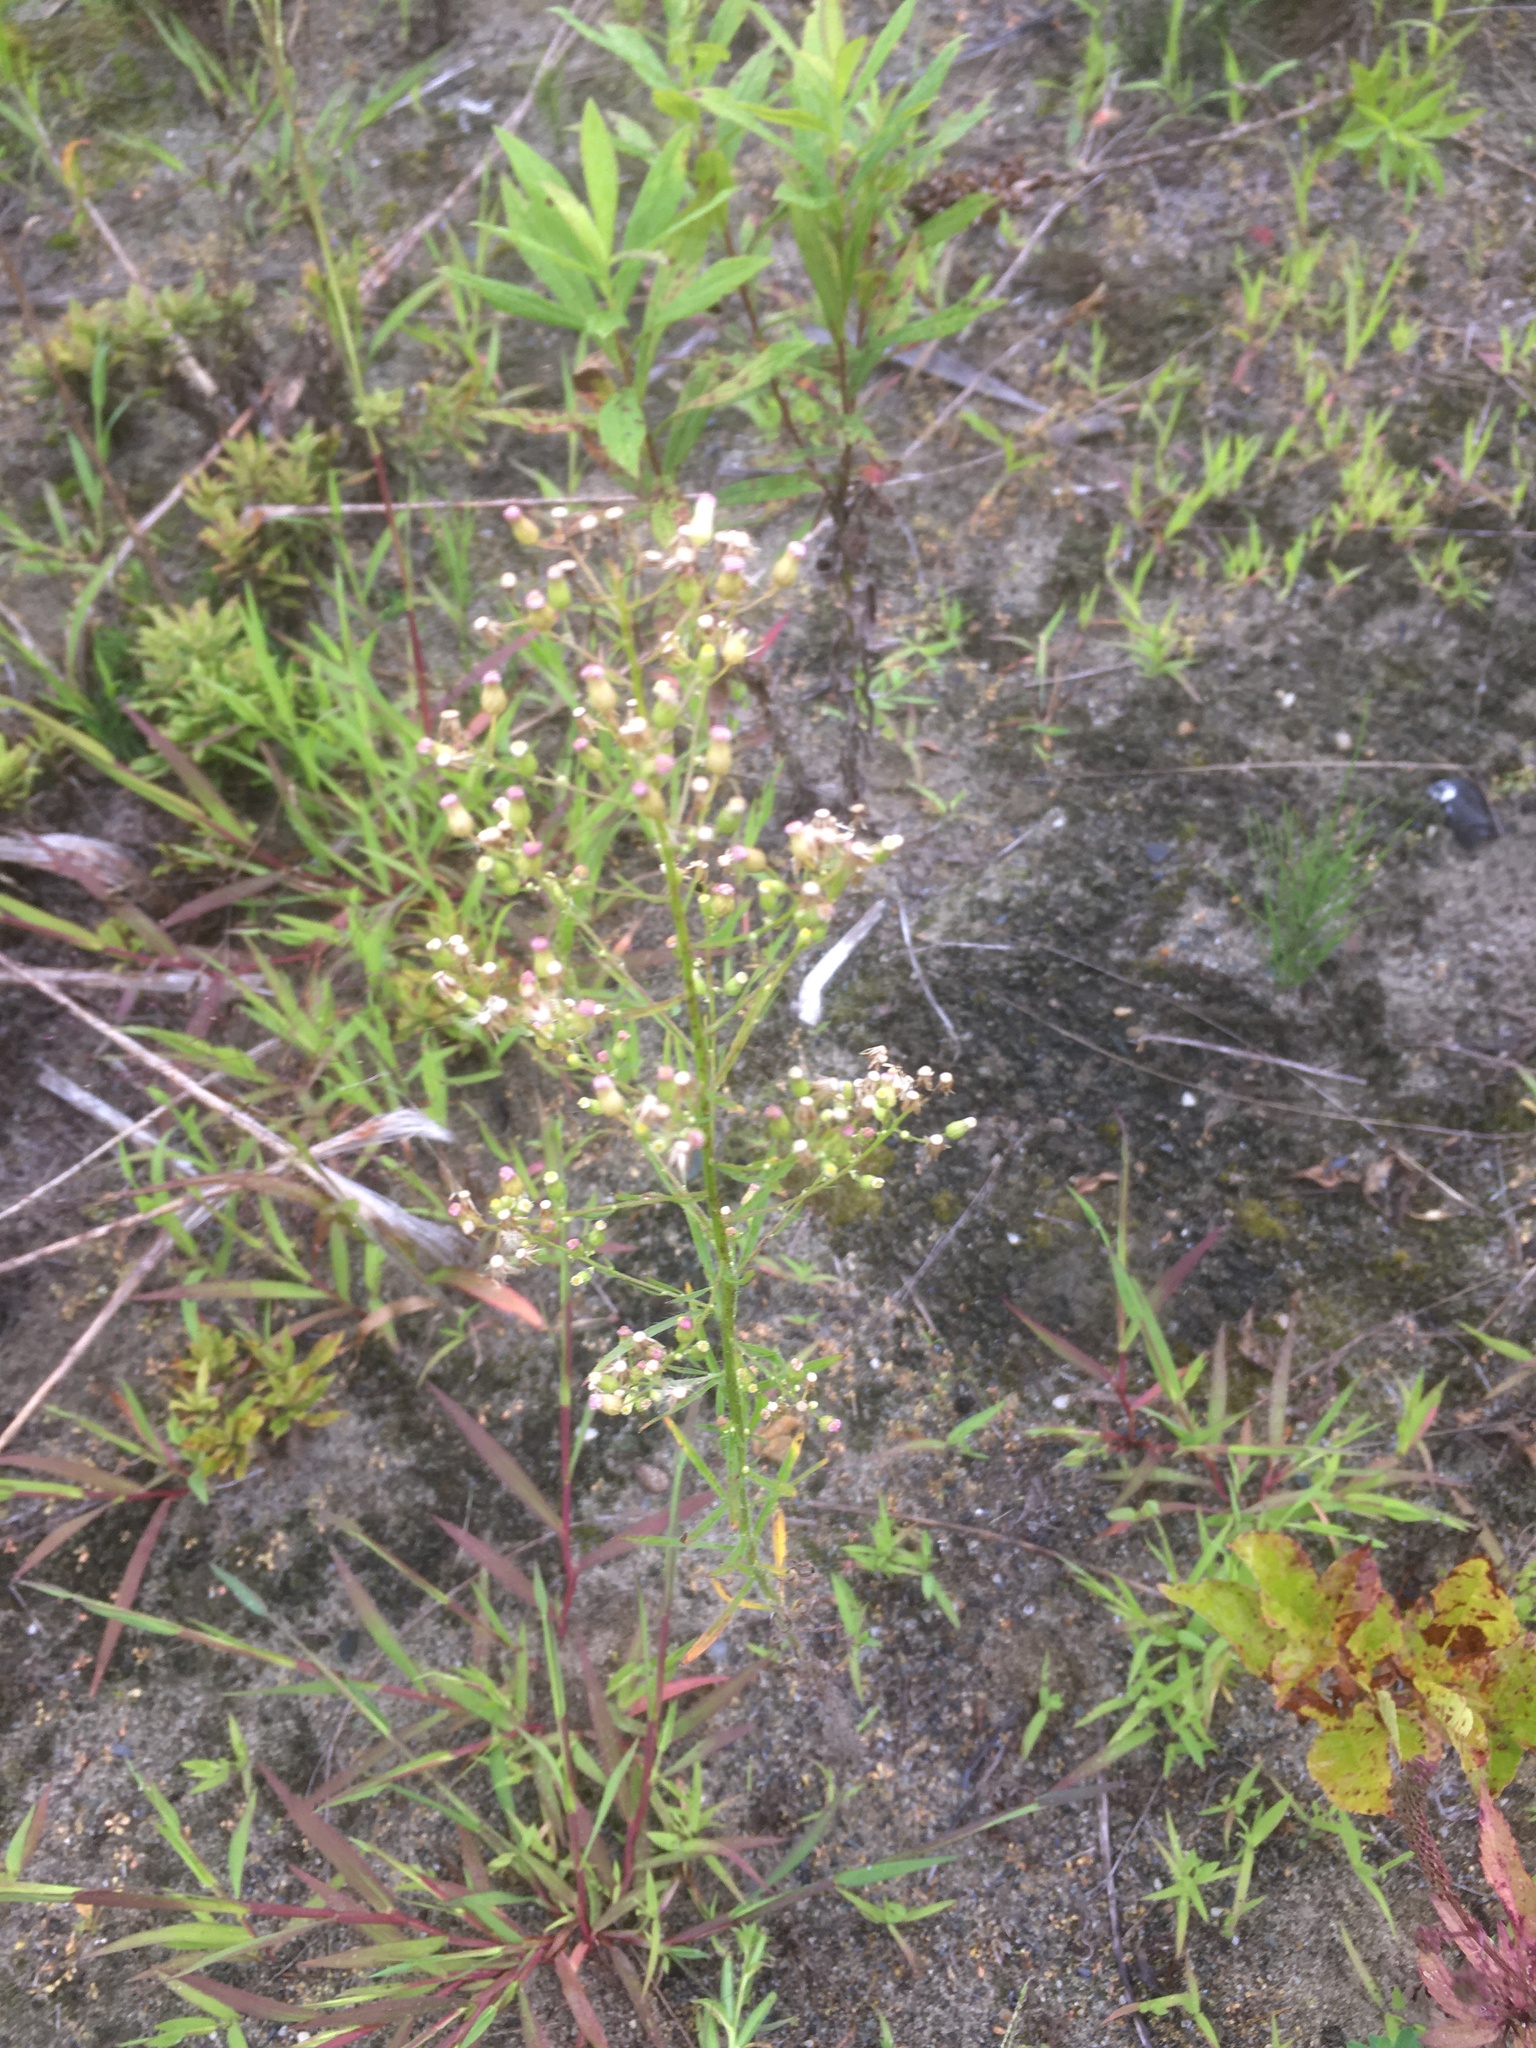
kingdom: Plantae
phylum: Tracheophyta
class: Magnoliopsida
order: Asterales
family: Asteraceae
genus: Erigeron
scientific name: Erigeron canadensis
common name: Canadian fleabane
